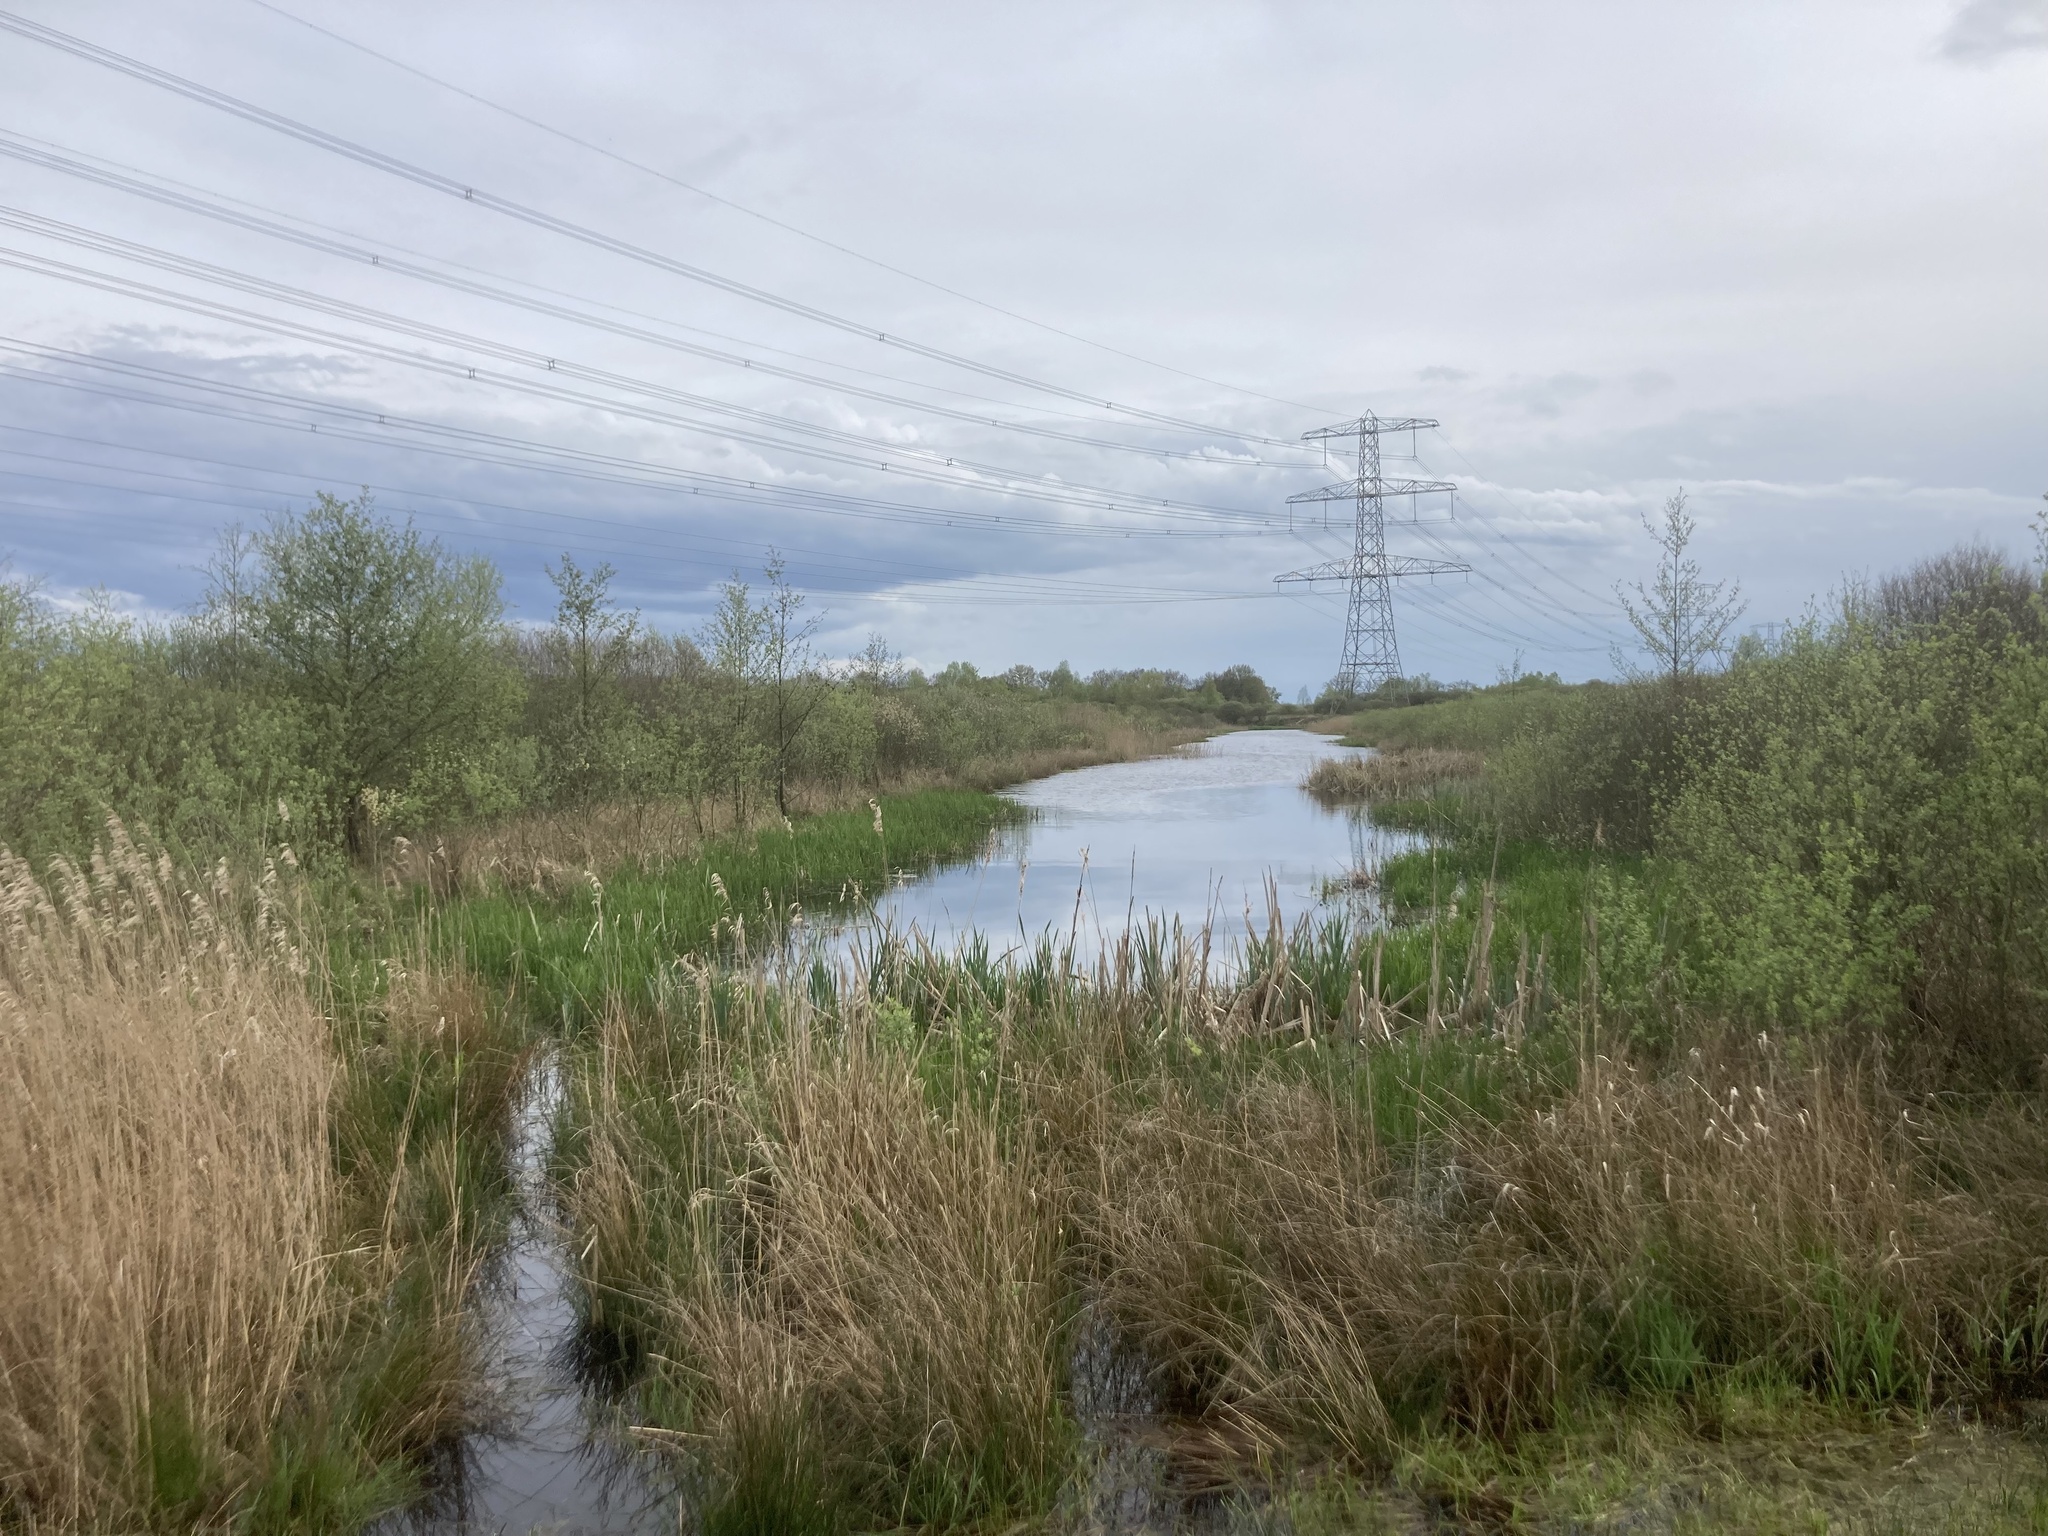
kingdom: Plantae
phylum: Tracheophyta
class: Liliopsida
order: Poales
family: Poaceae
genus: Phragmites
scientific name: Phragmites australis
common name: Common reed
